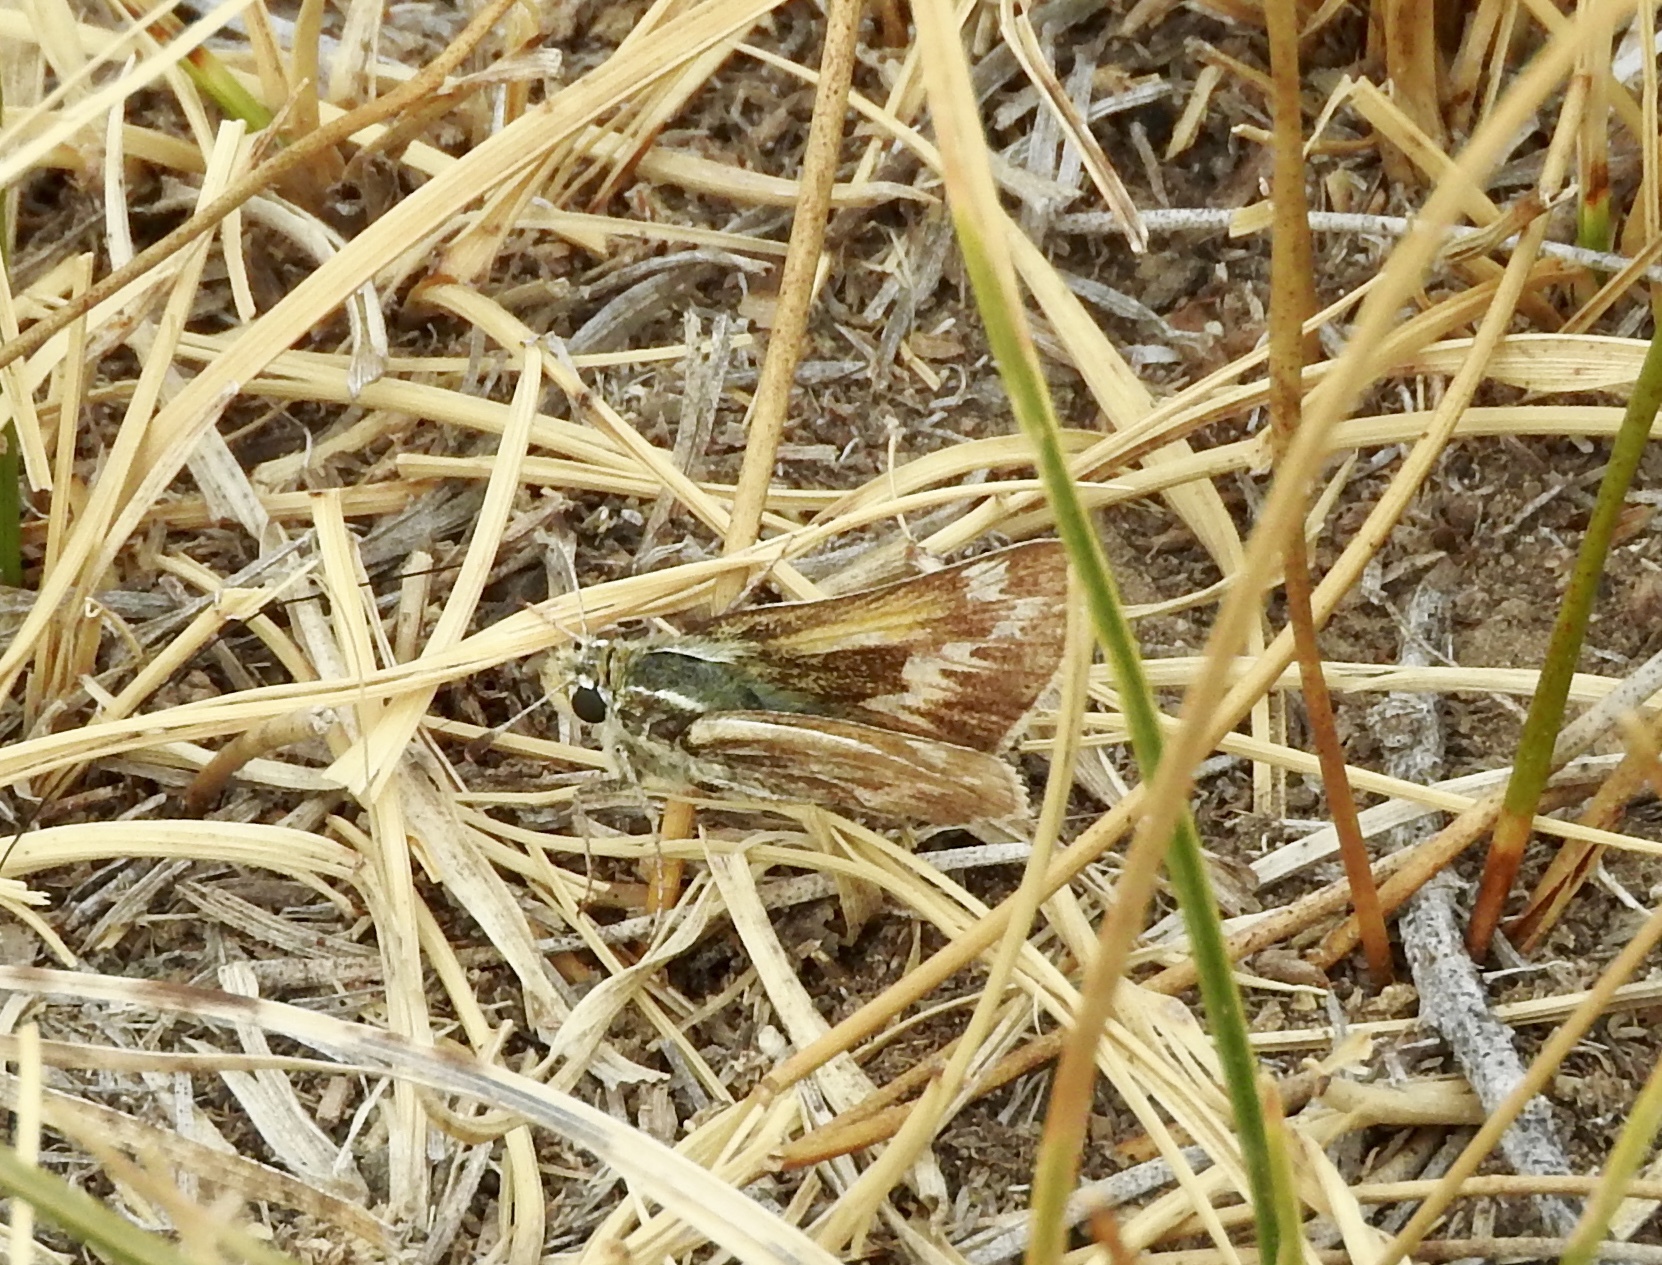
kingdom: Animalia
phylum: Arthropoda
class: Insecta
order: Lepidoptera
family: Hesperiidae
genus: Polites
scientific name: Polites sabuleti
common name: Sandhill skipper
